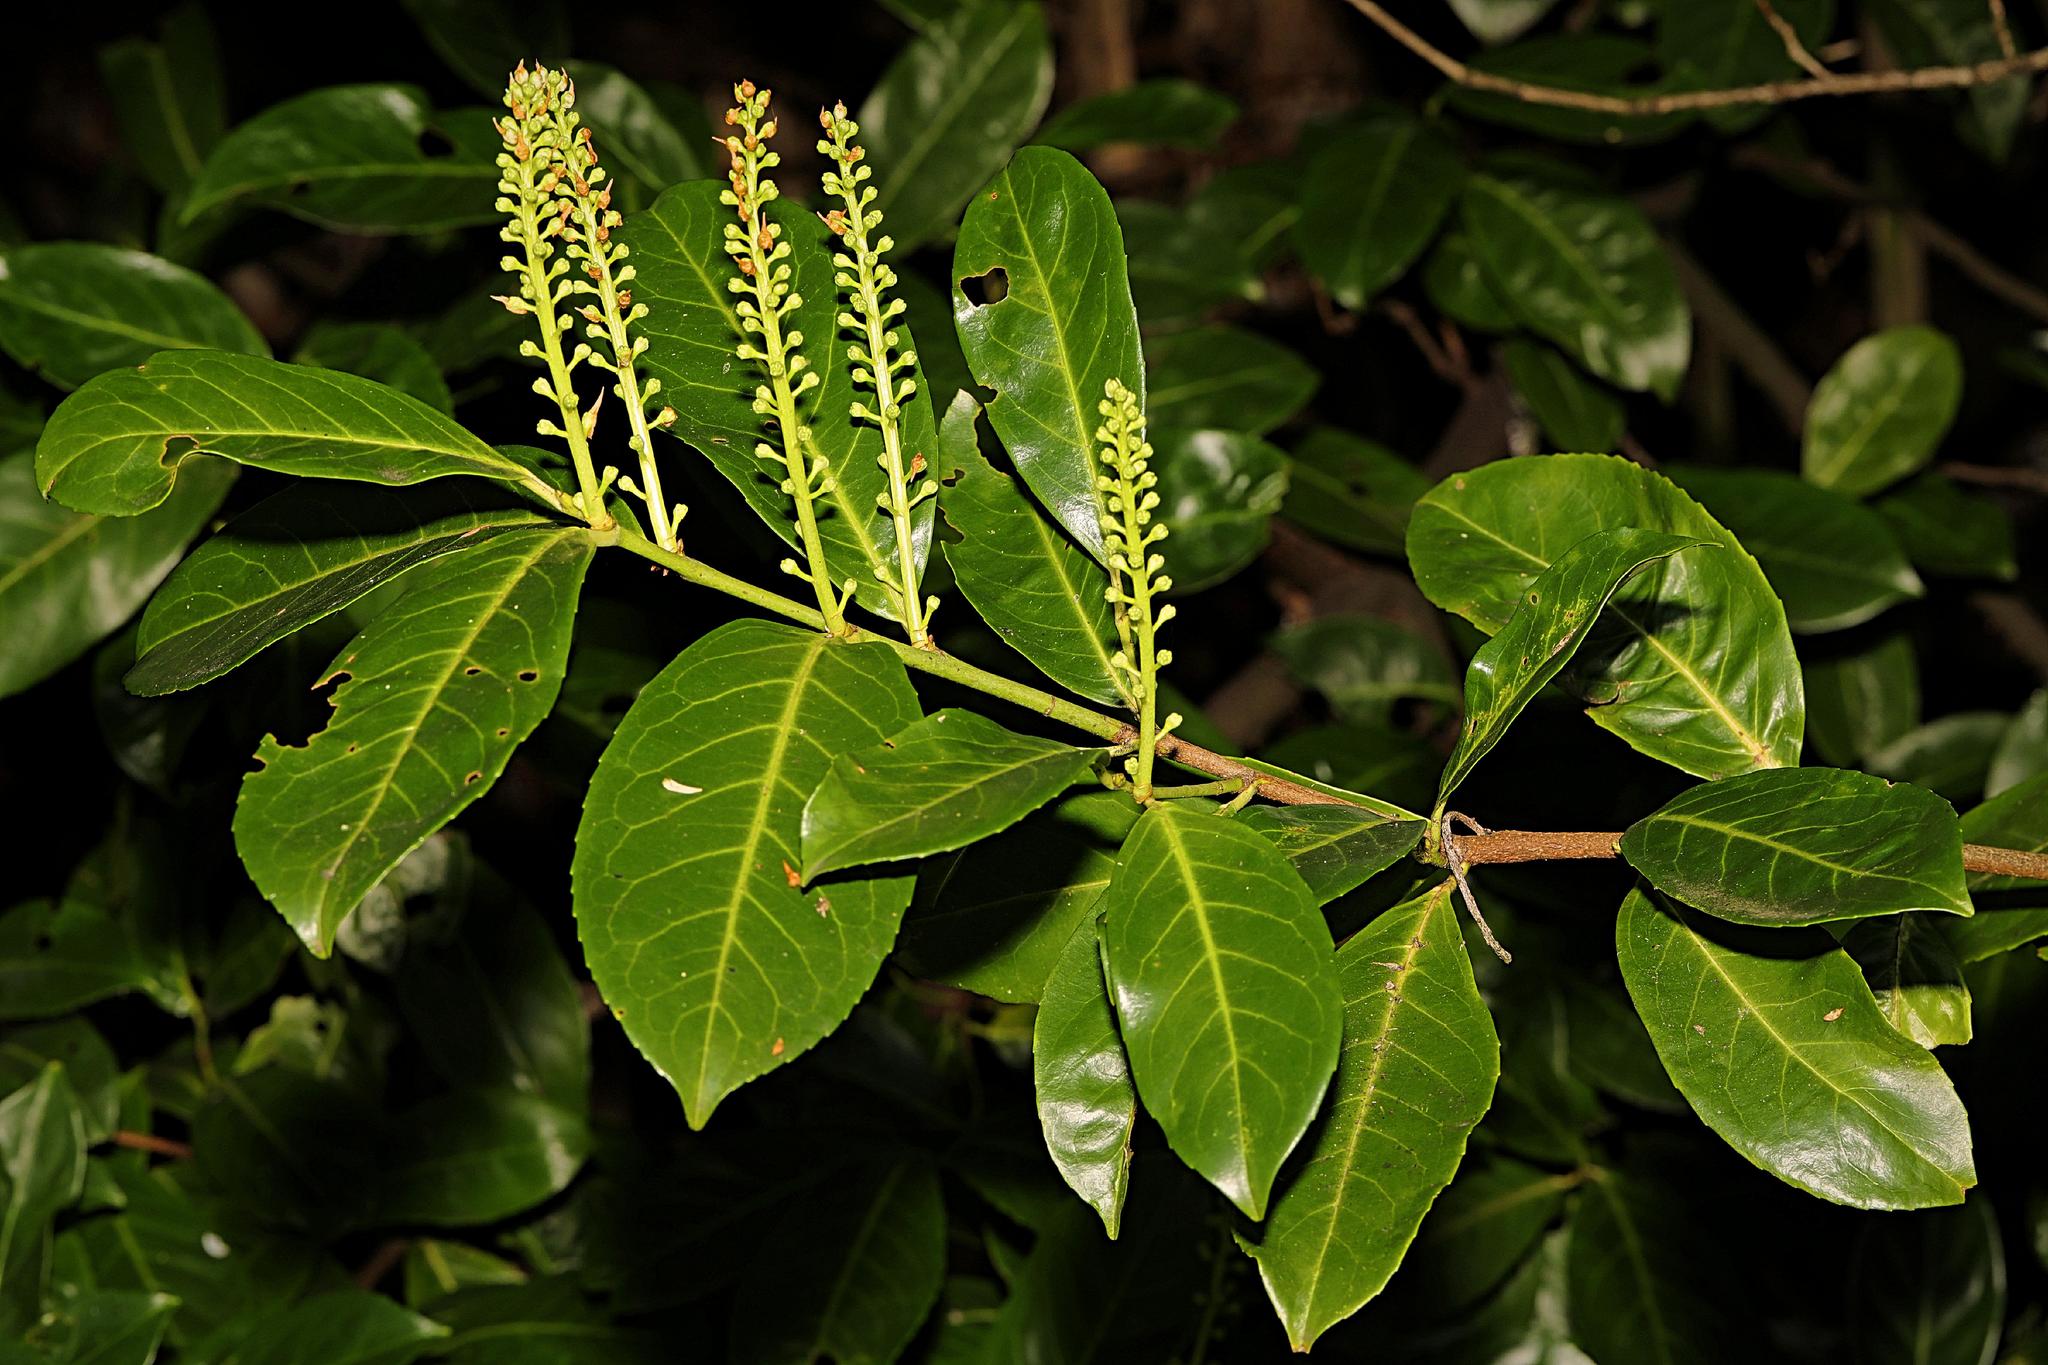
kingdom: Plantae
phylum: Tracheophyta
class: Magnoliopsida
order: Rosales
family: Rosaceae
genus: Prunus
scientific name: Prunus laurocerasus
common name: Cherry laurel
